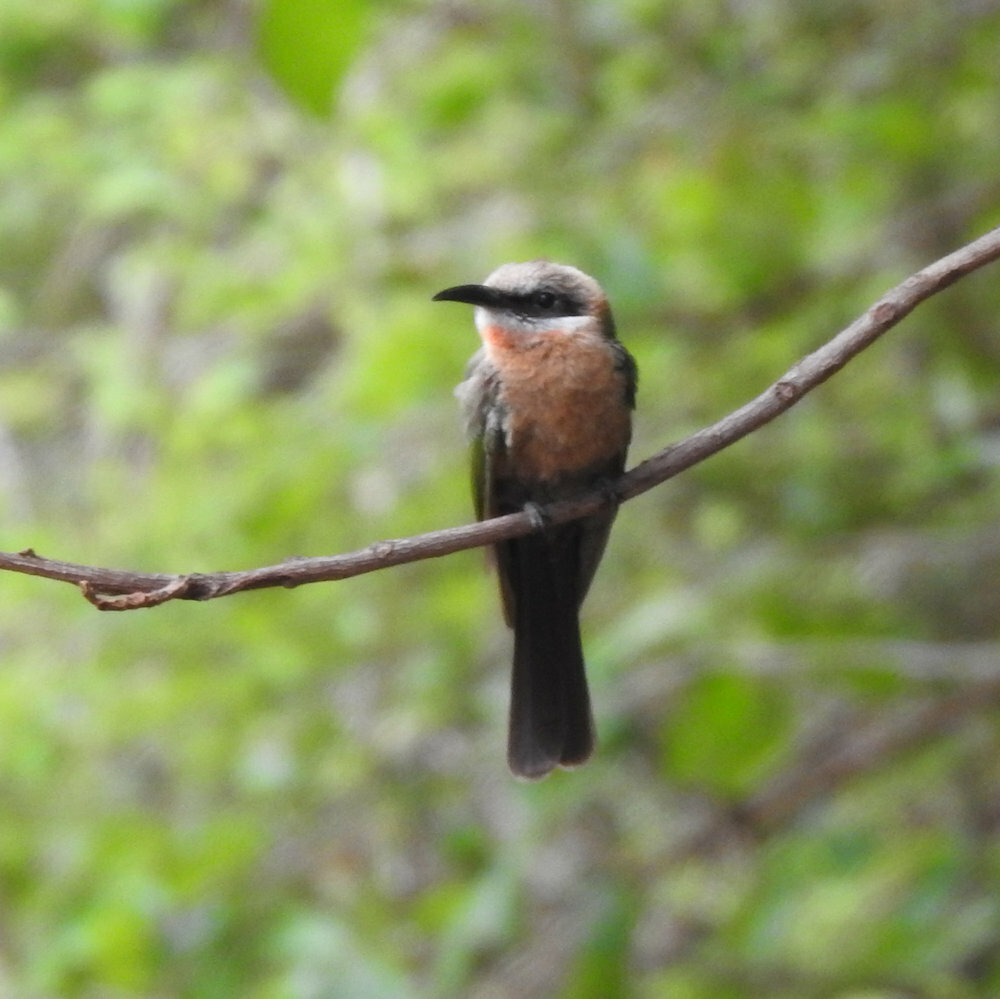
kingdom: Animalia
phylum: Chordata
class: Aves
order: Coraciiformes
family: Meropidae
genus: Merops
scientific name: Merops bullockoides
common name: White-fronted bee-eater
